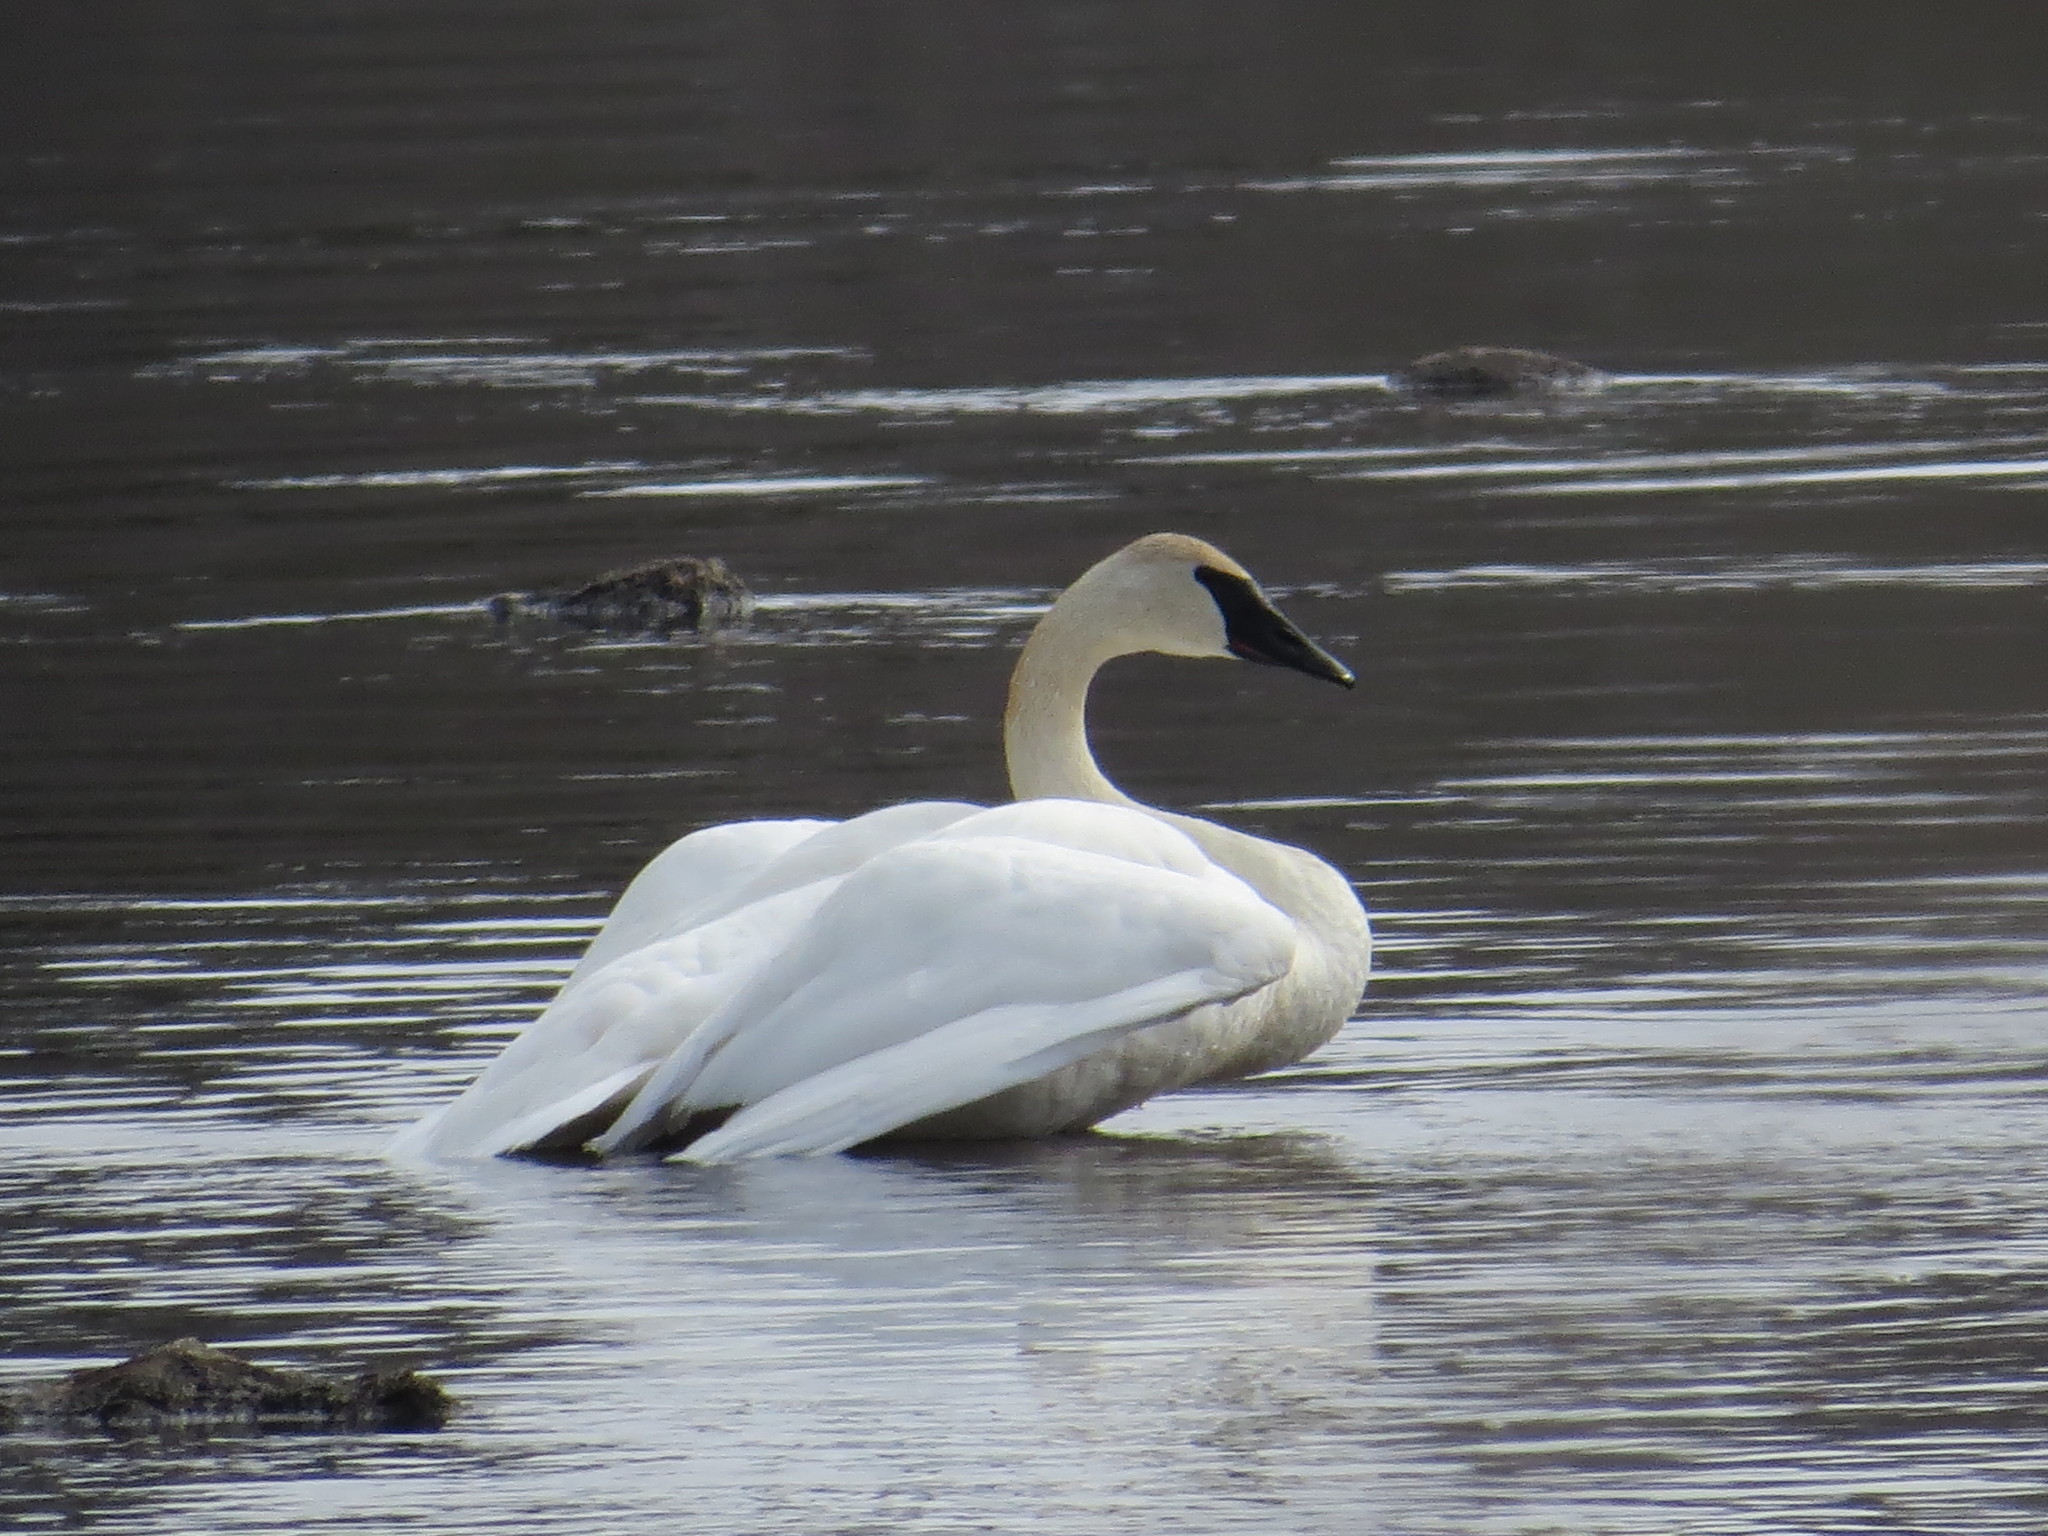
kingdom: Animalia
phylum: Chordata
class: Aves
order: Anseriformes
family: Anatidae
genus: Cygnus
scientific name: Cygnus buccinator
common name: Trumpeter swan
